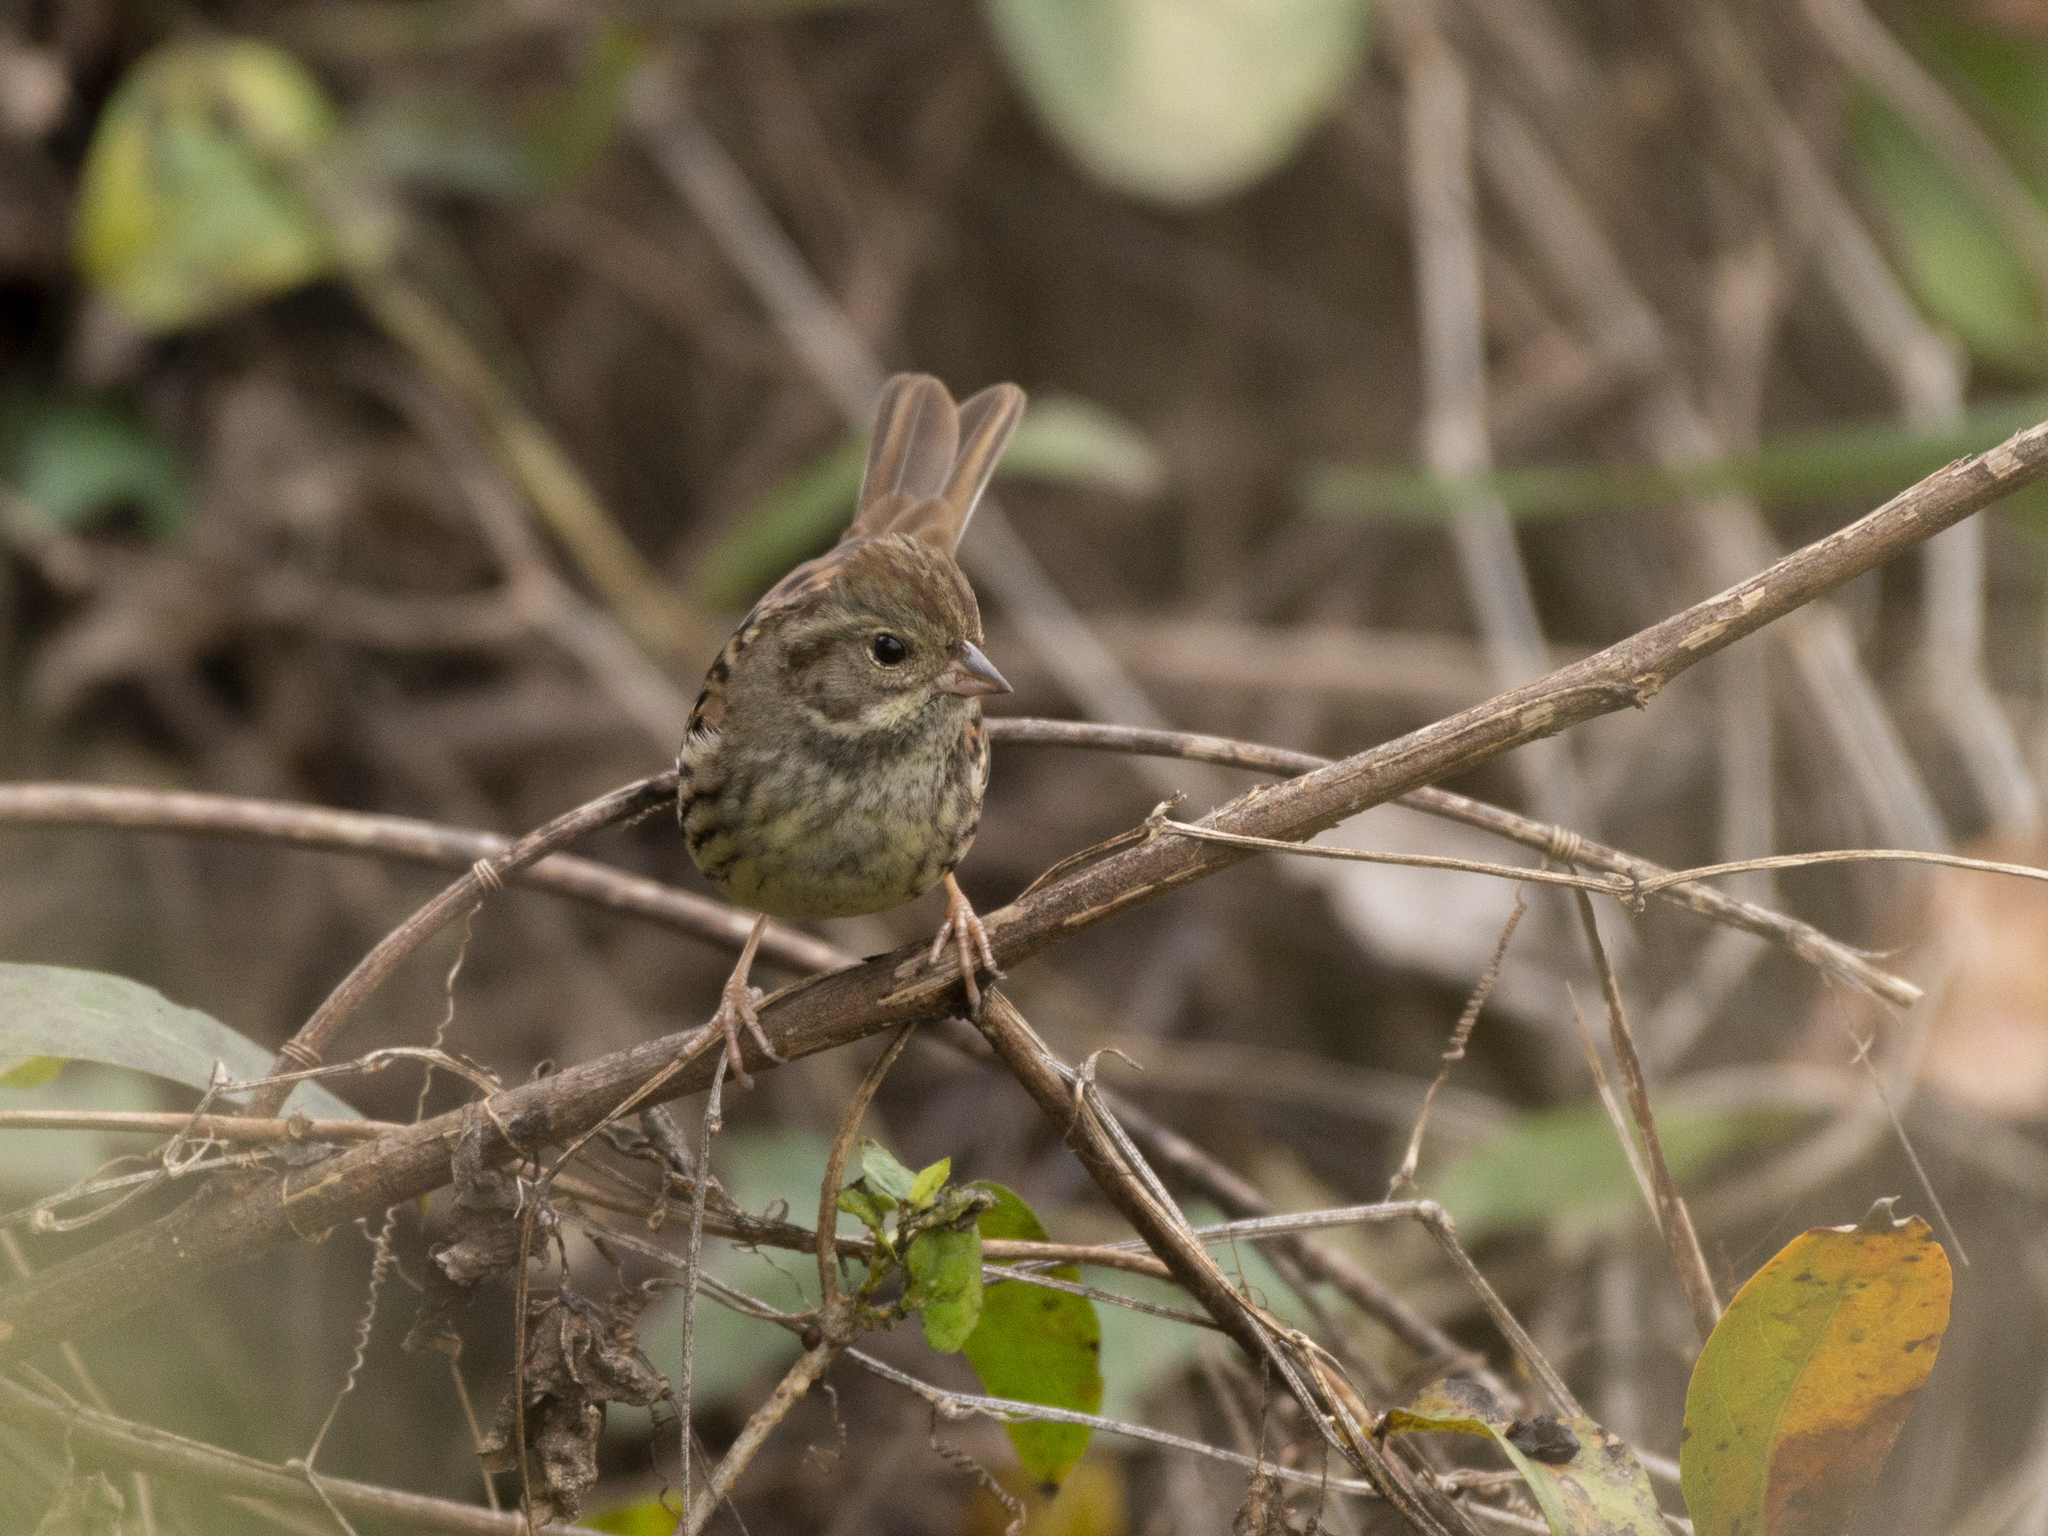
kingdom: Animalia
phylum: Chordata
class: Aves
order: Passeriformes
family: Emberizidae
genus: Emberiza
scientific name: Emberiza spodocephala
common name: Black-faced bunting
